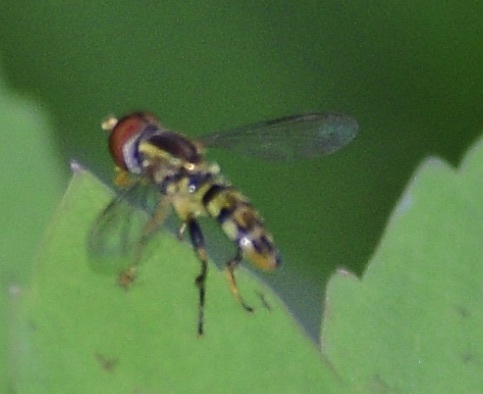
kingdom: Animalia
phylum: Arthropoda
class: Insecta
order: Diptera
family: Syrphidae
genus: Toxomerus
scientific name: Toxomerus geminatus
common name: Eastern calligrapher
